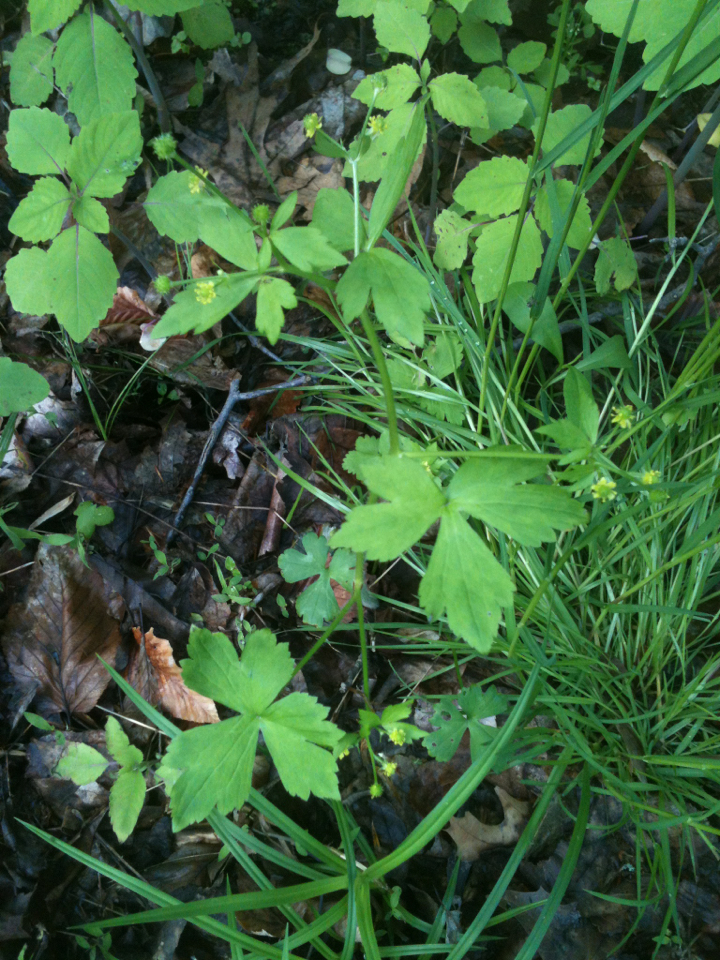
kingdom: Plantae
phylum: Tracheophyta
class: Magnoliopsida
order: Ranunculales
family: Ranunculaceae
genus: Ranunculus
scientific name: Ranunculus recurvatus
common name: Blisterwort
